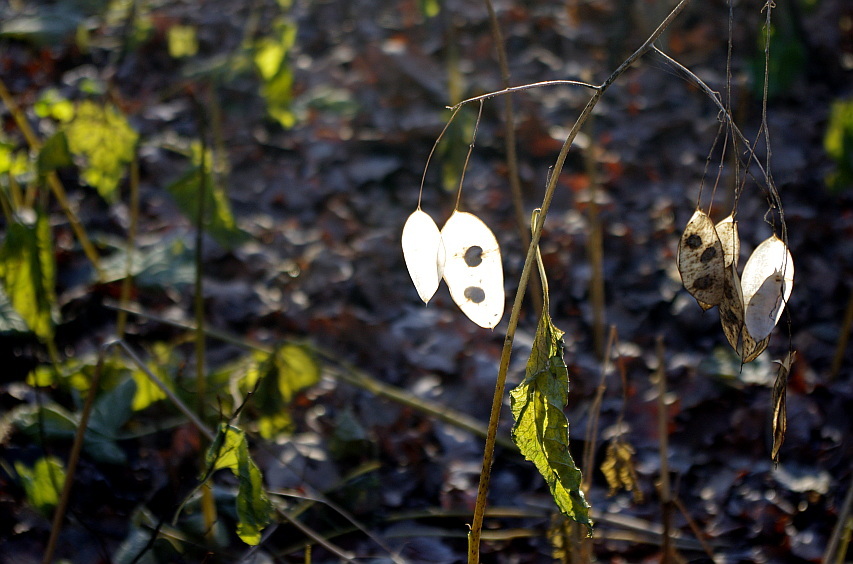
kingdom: Plantae
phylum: Tracheophyta
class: Magnoliopsida
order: Brassicales
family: Brassicaceae
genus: Lunaria
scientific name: Lunaria rediviva
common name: Perennial honesty
